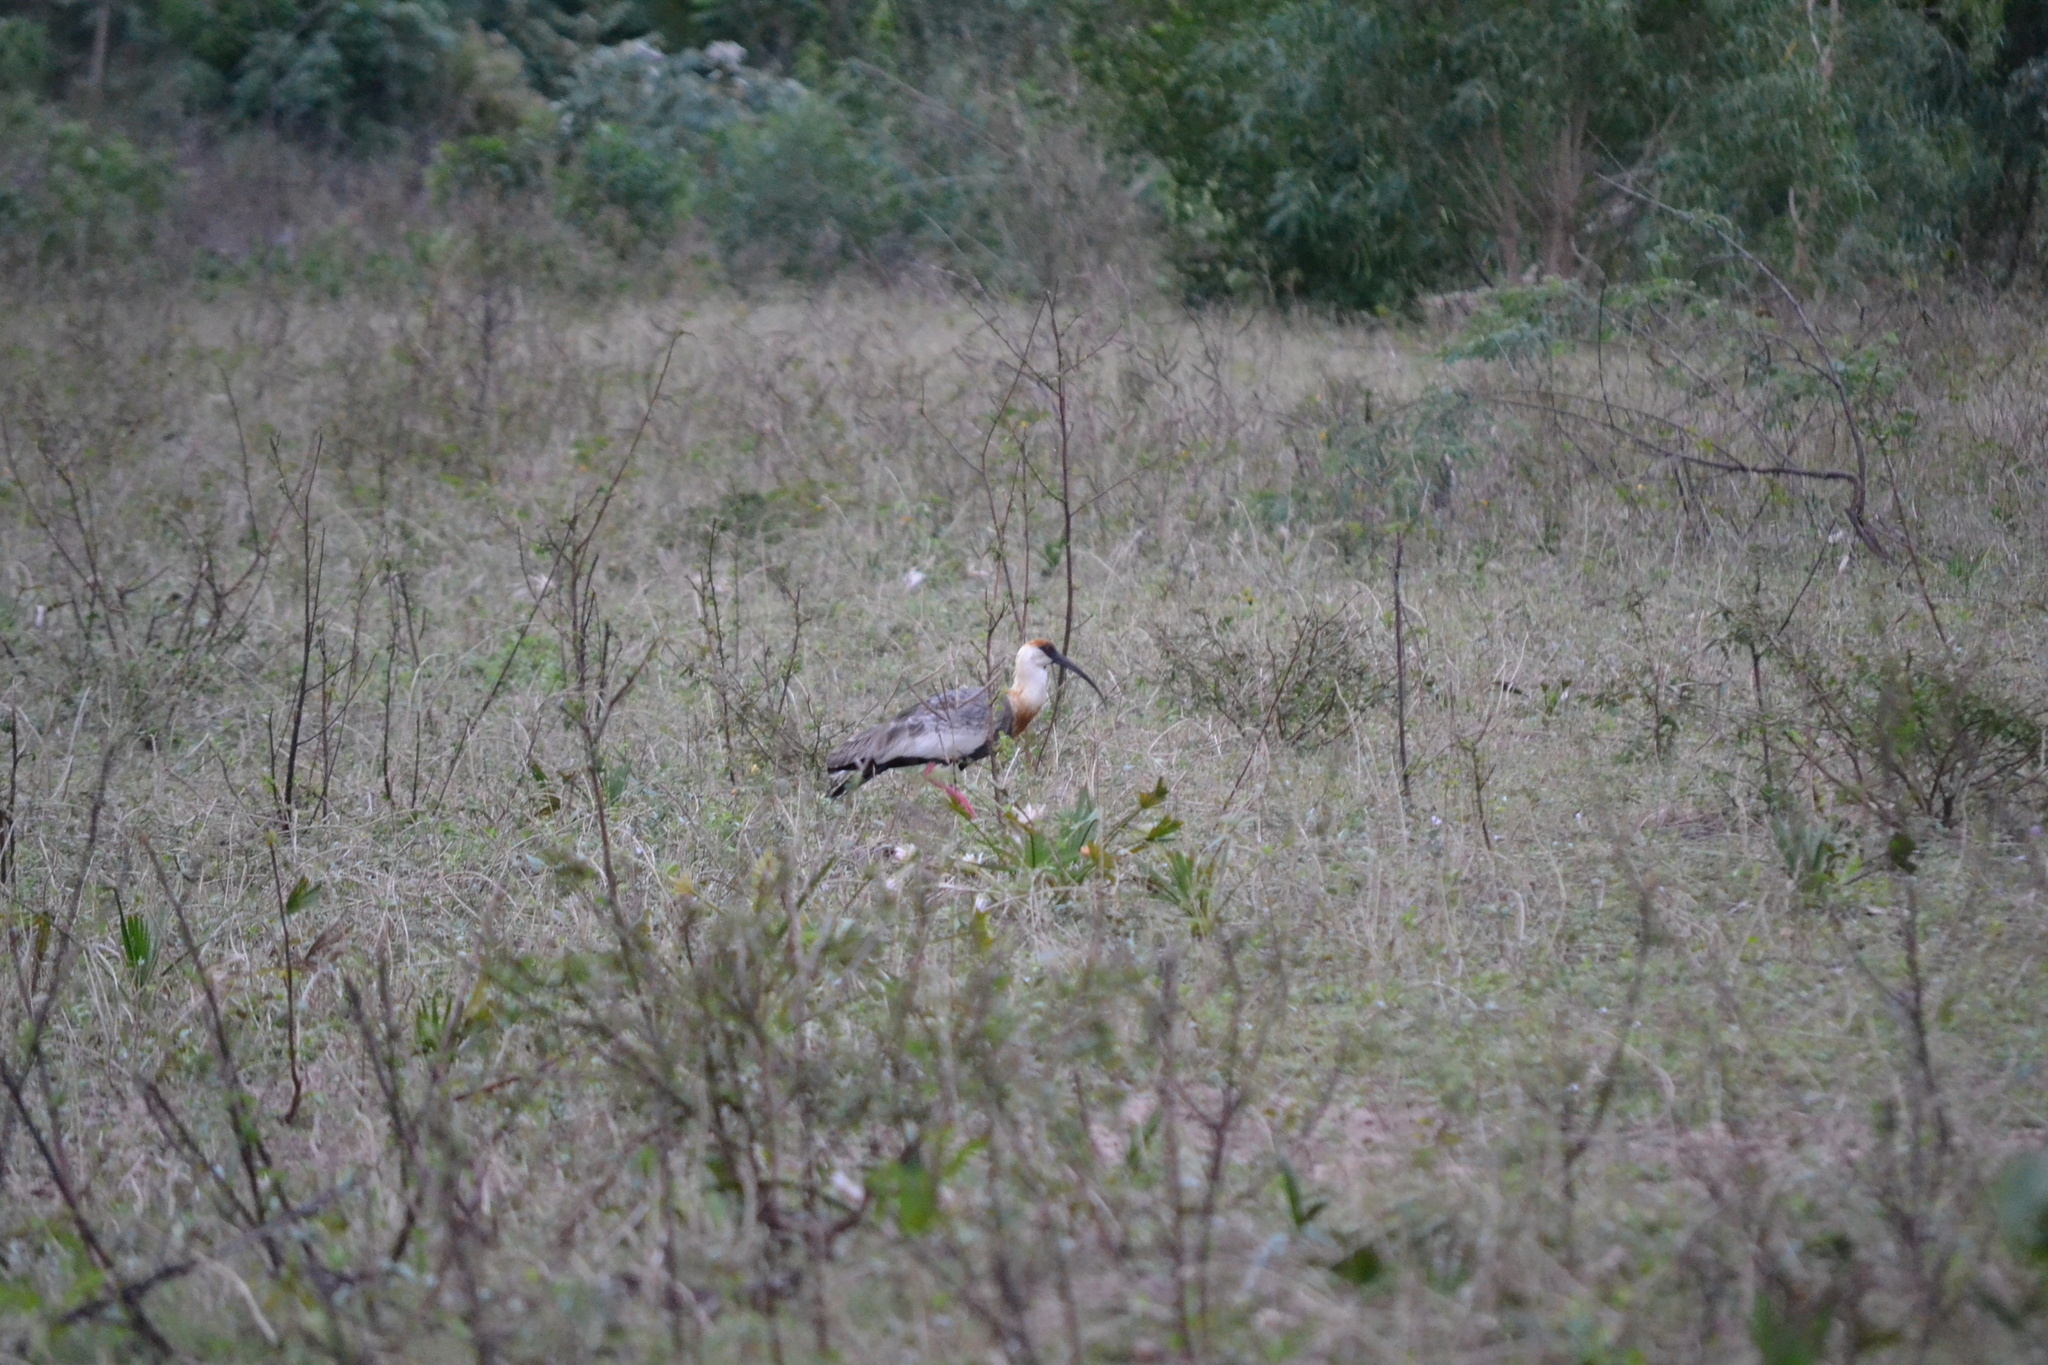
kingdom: Animalia
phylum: Chordata
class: Aves
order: Pelecaniformes
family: Threskiornithidae
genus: Theristicus
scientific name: Theristicus caudatus
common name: Buff-necked ibis
